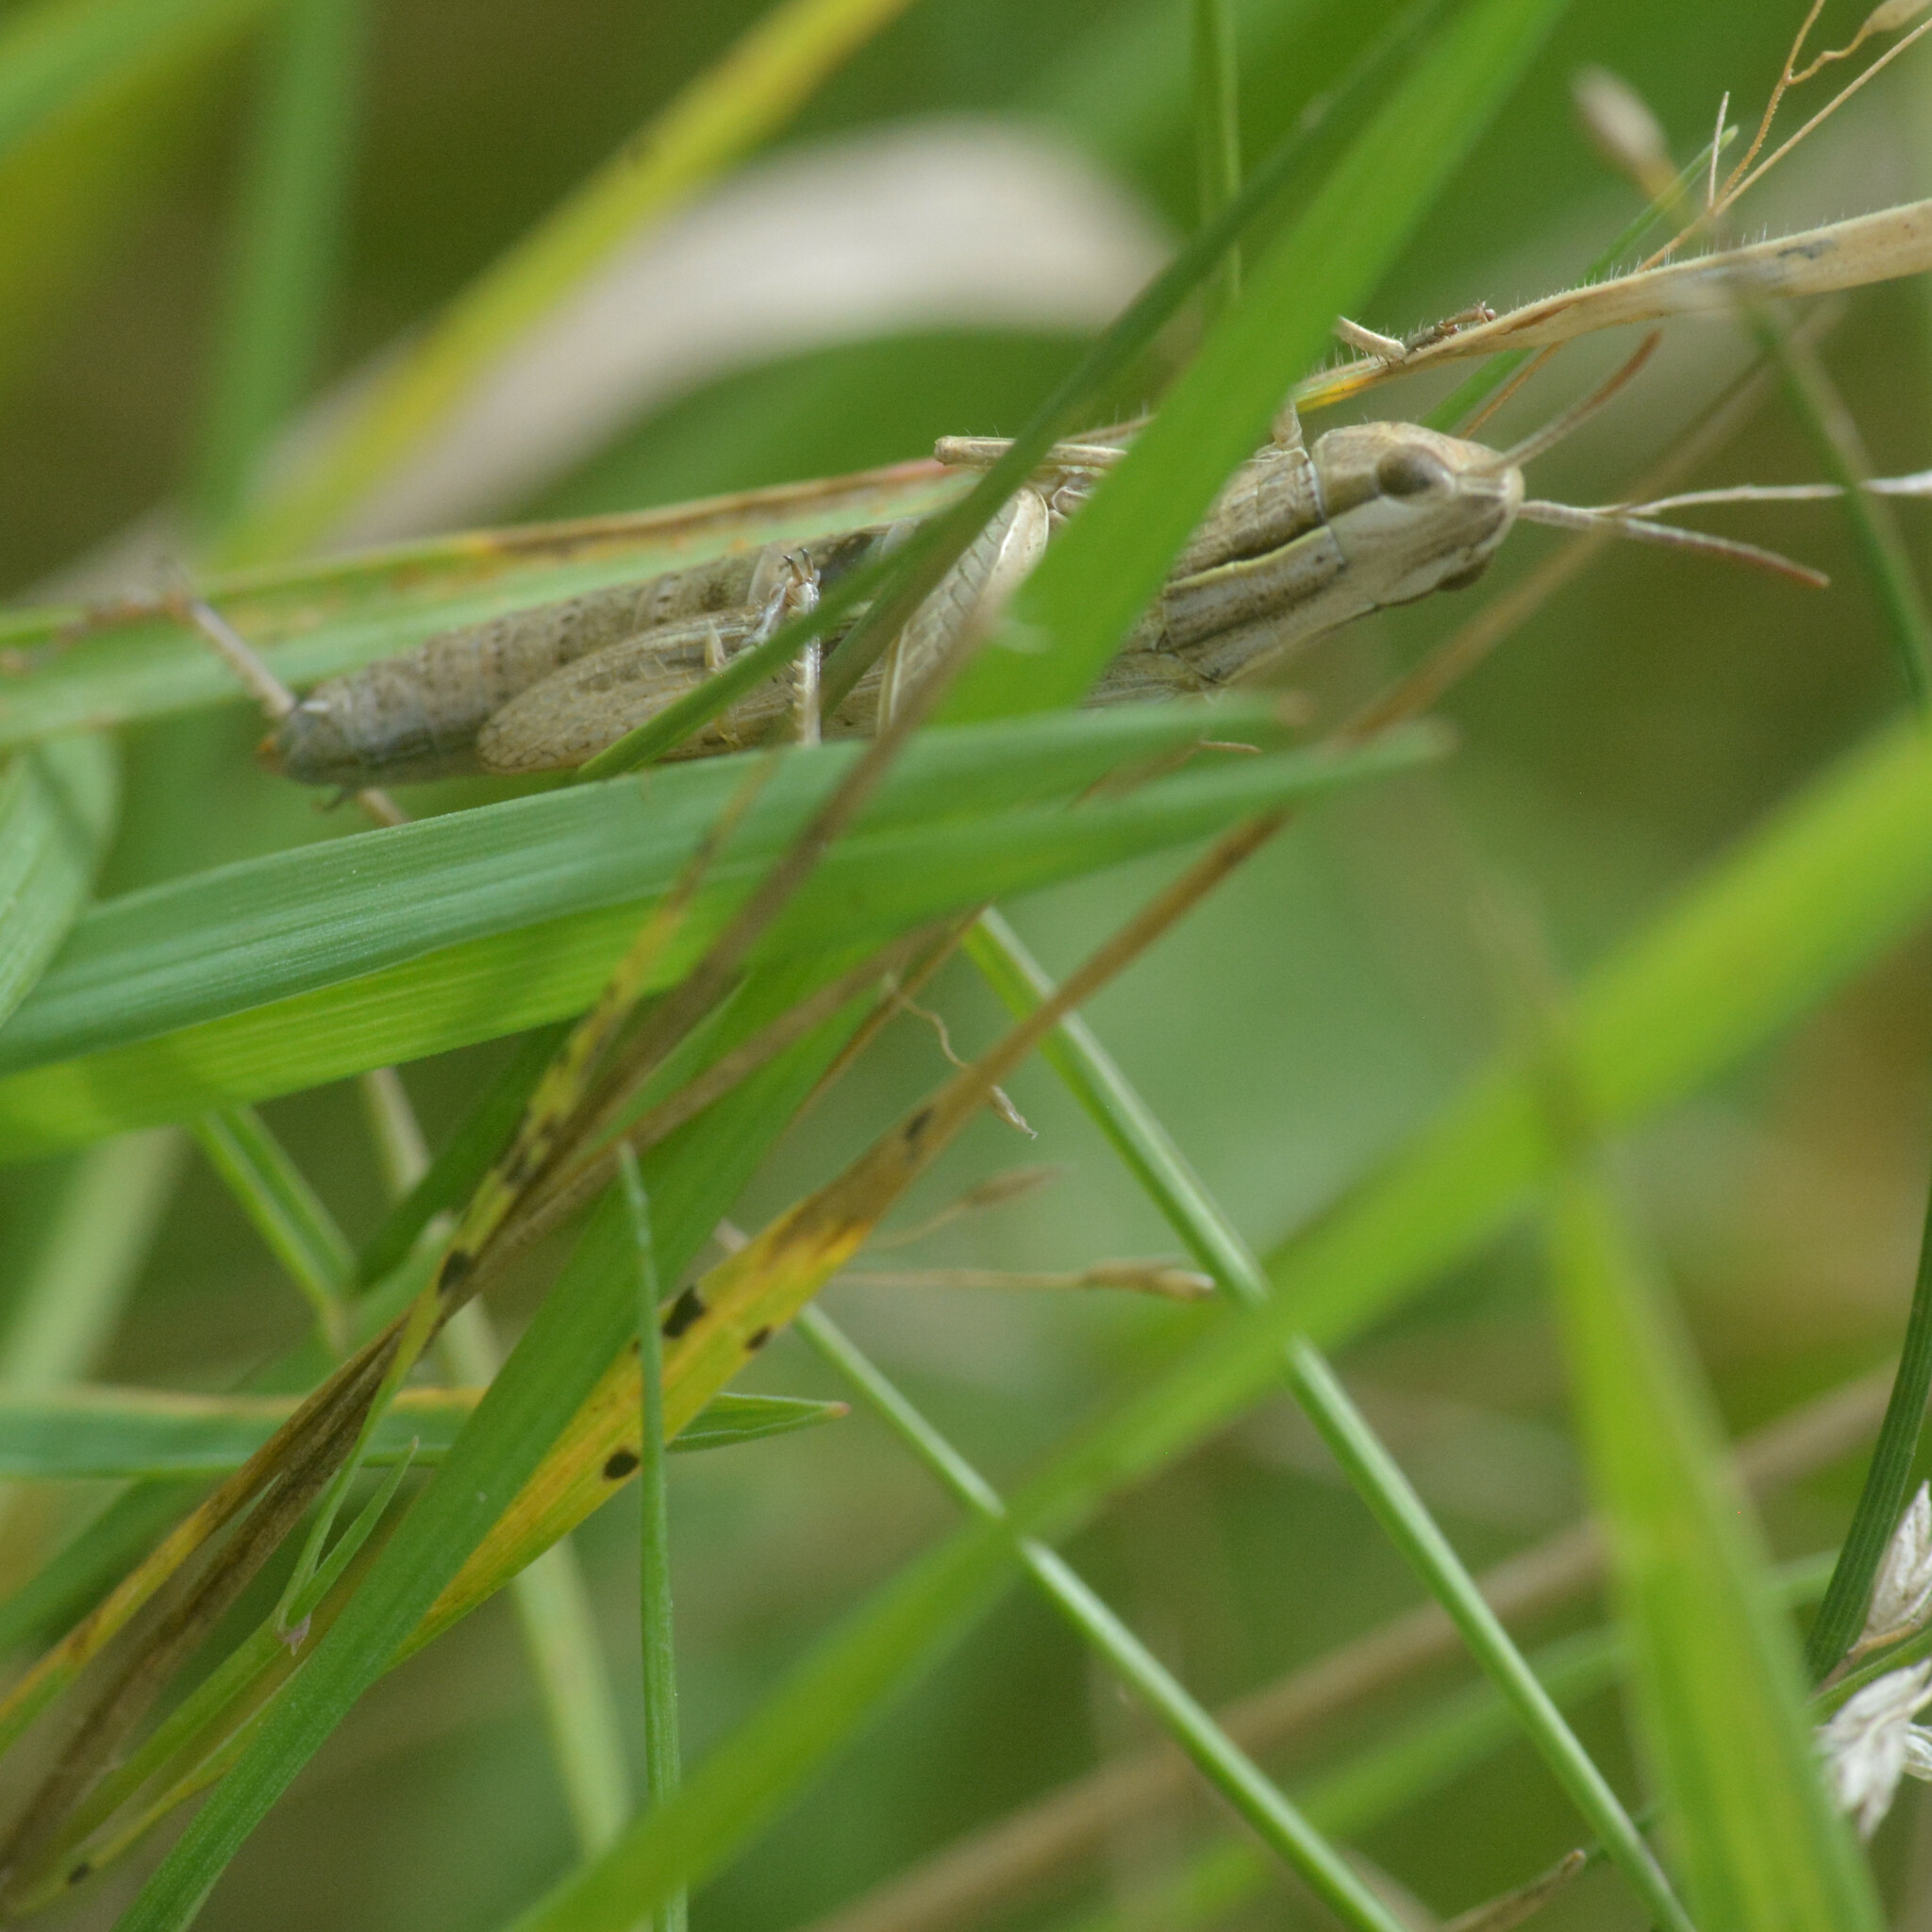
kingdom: Animalia
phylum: Arthropoda
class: Insecta
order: Orthoptera
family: Acrididae
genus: Chorthippus
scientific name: Chorthippus albomarginatus
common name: Lesser marsh grasshopper
